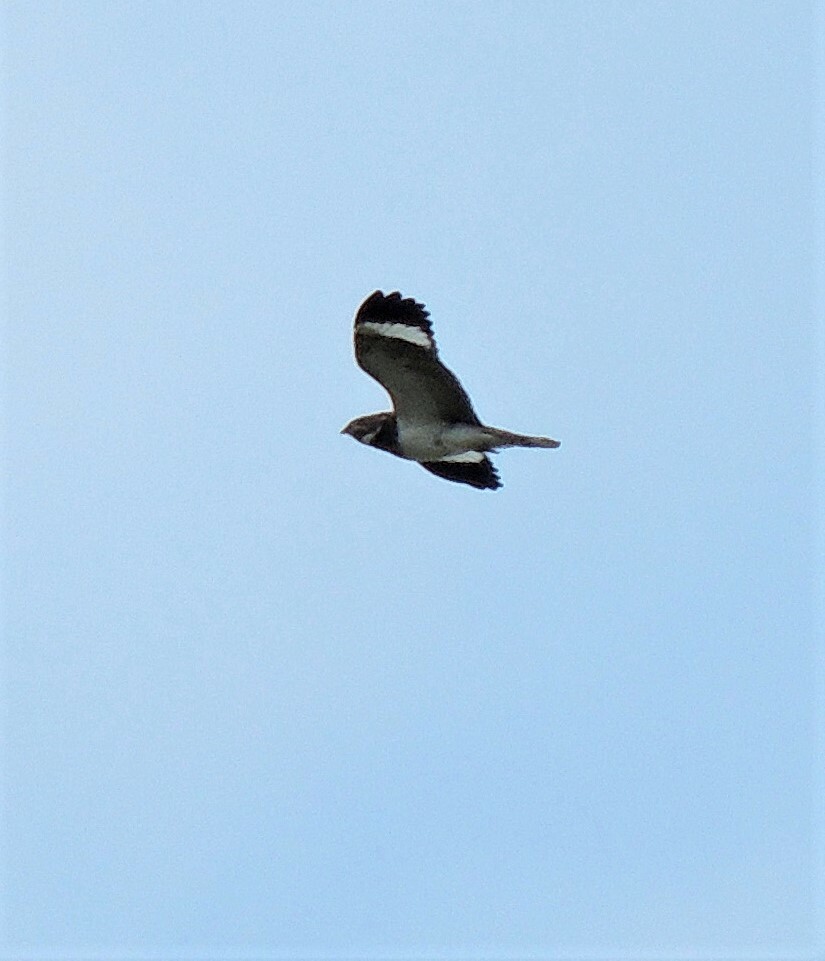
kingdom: Animalia
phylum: Chordata
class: Aves
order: Caprimulgiformes
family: Caprimulgidae
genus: Chordeiles
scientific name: Chordeiles nacunda
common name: Nacunda nighthawk
